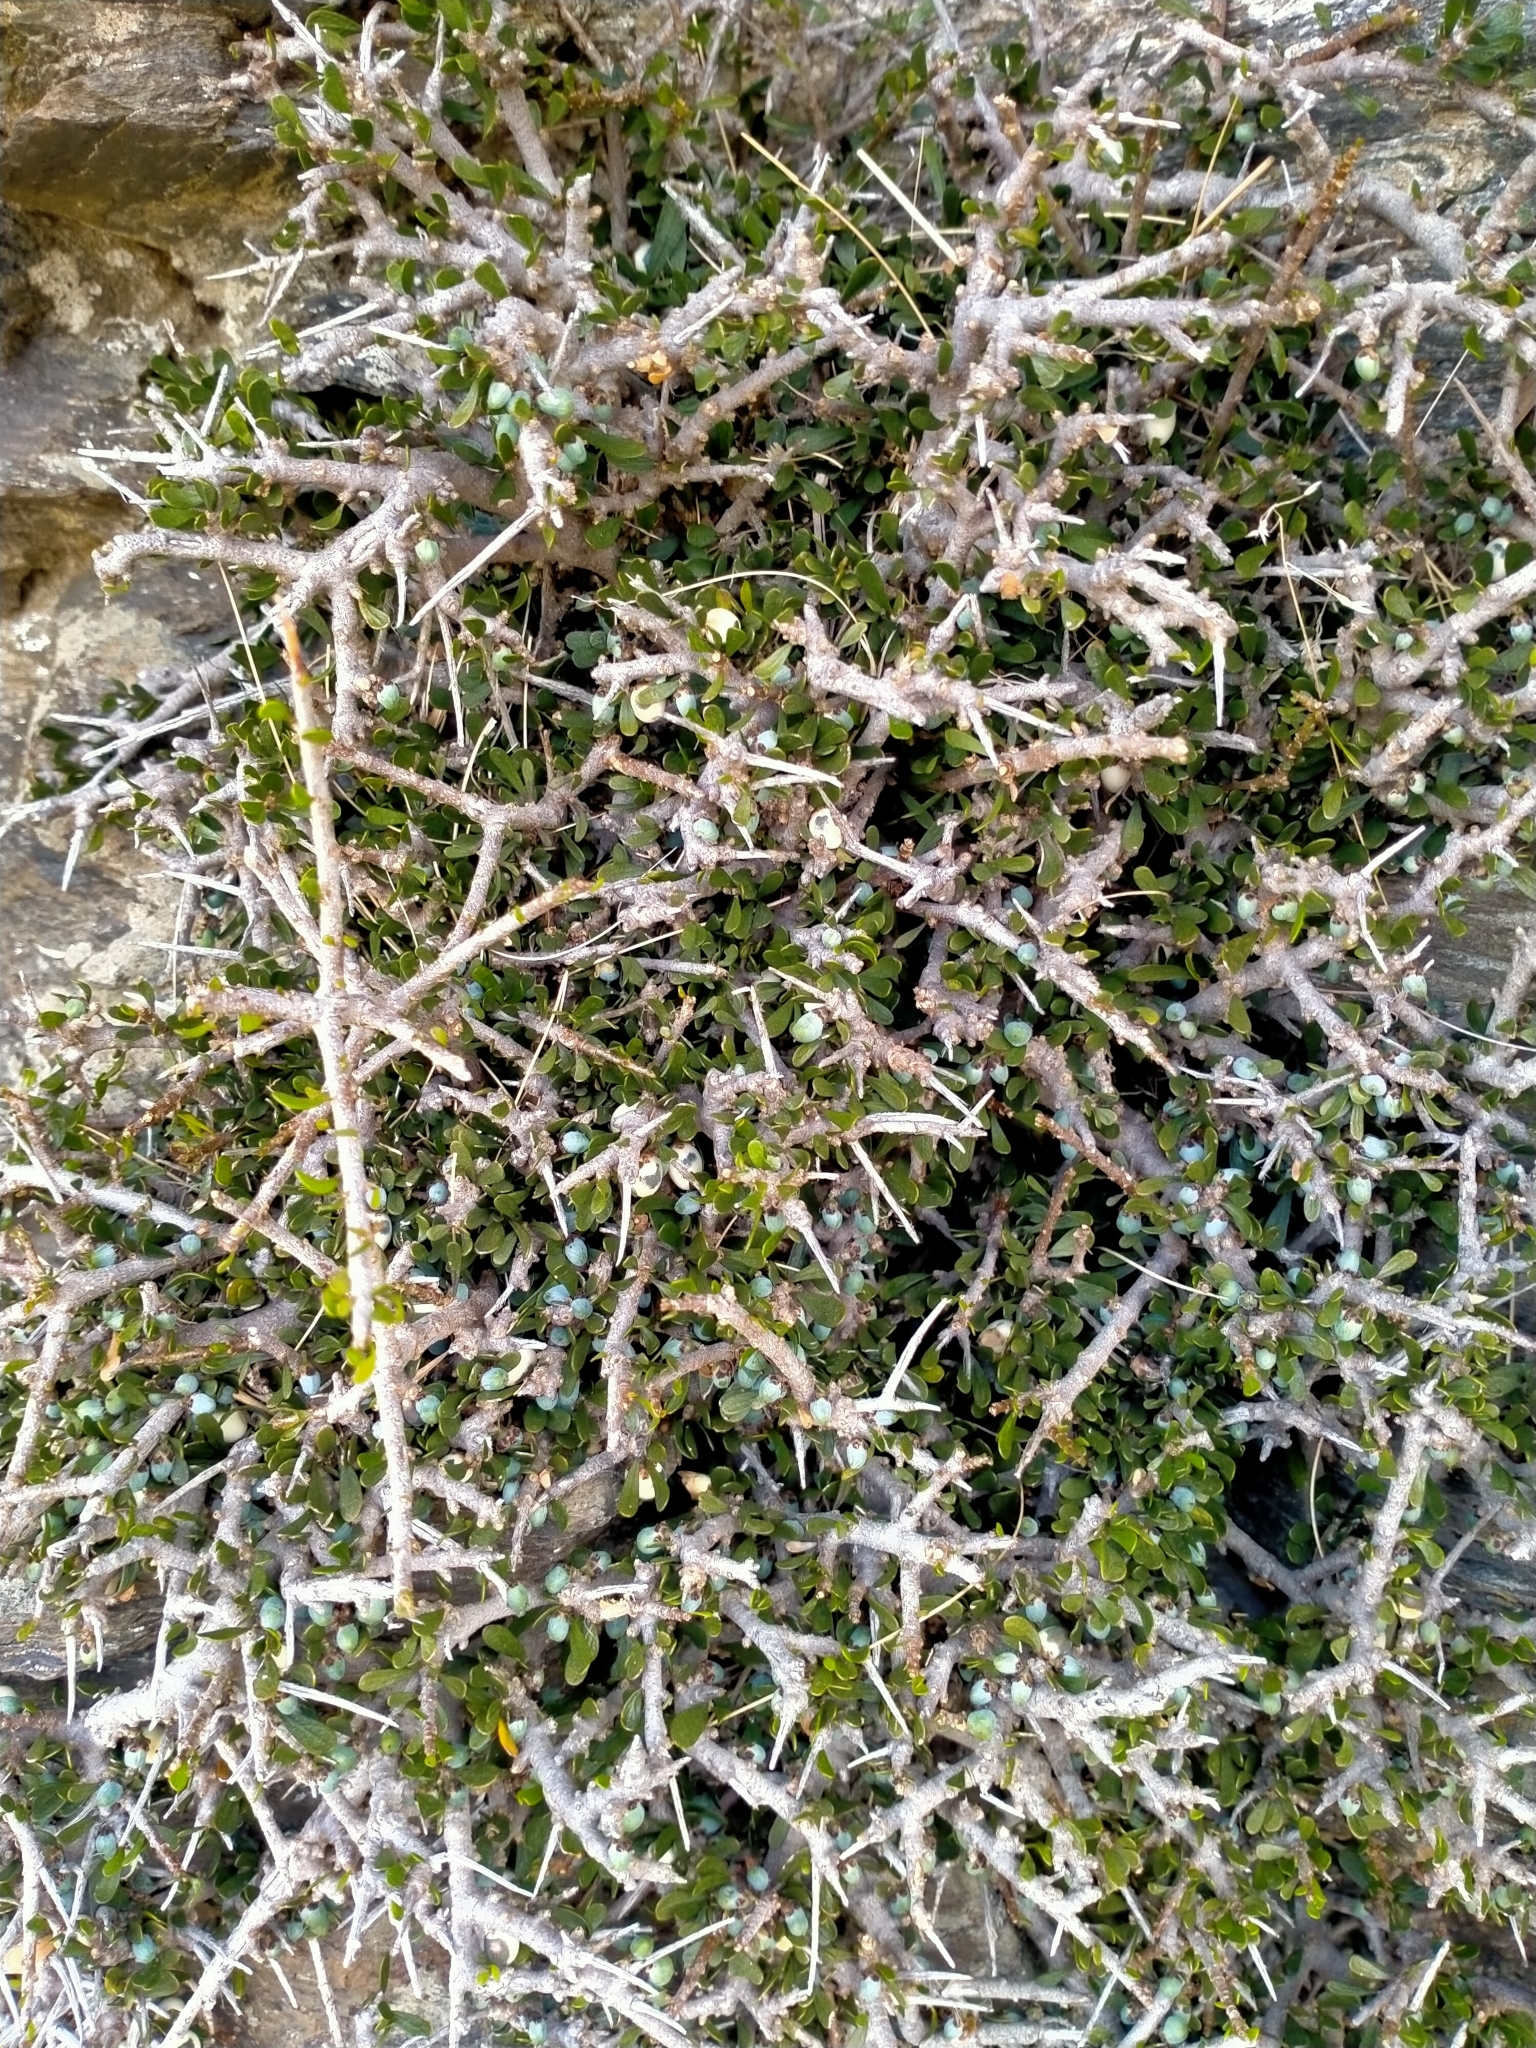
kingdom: Plantae
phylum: Tracheophyta
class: Magnoliopsida
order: Malpighiales
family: Violaceae
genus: Melicytus
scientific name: Melicytus alpinus
